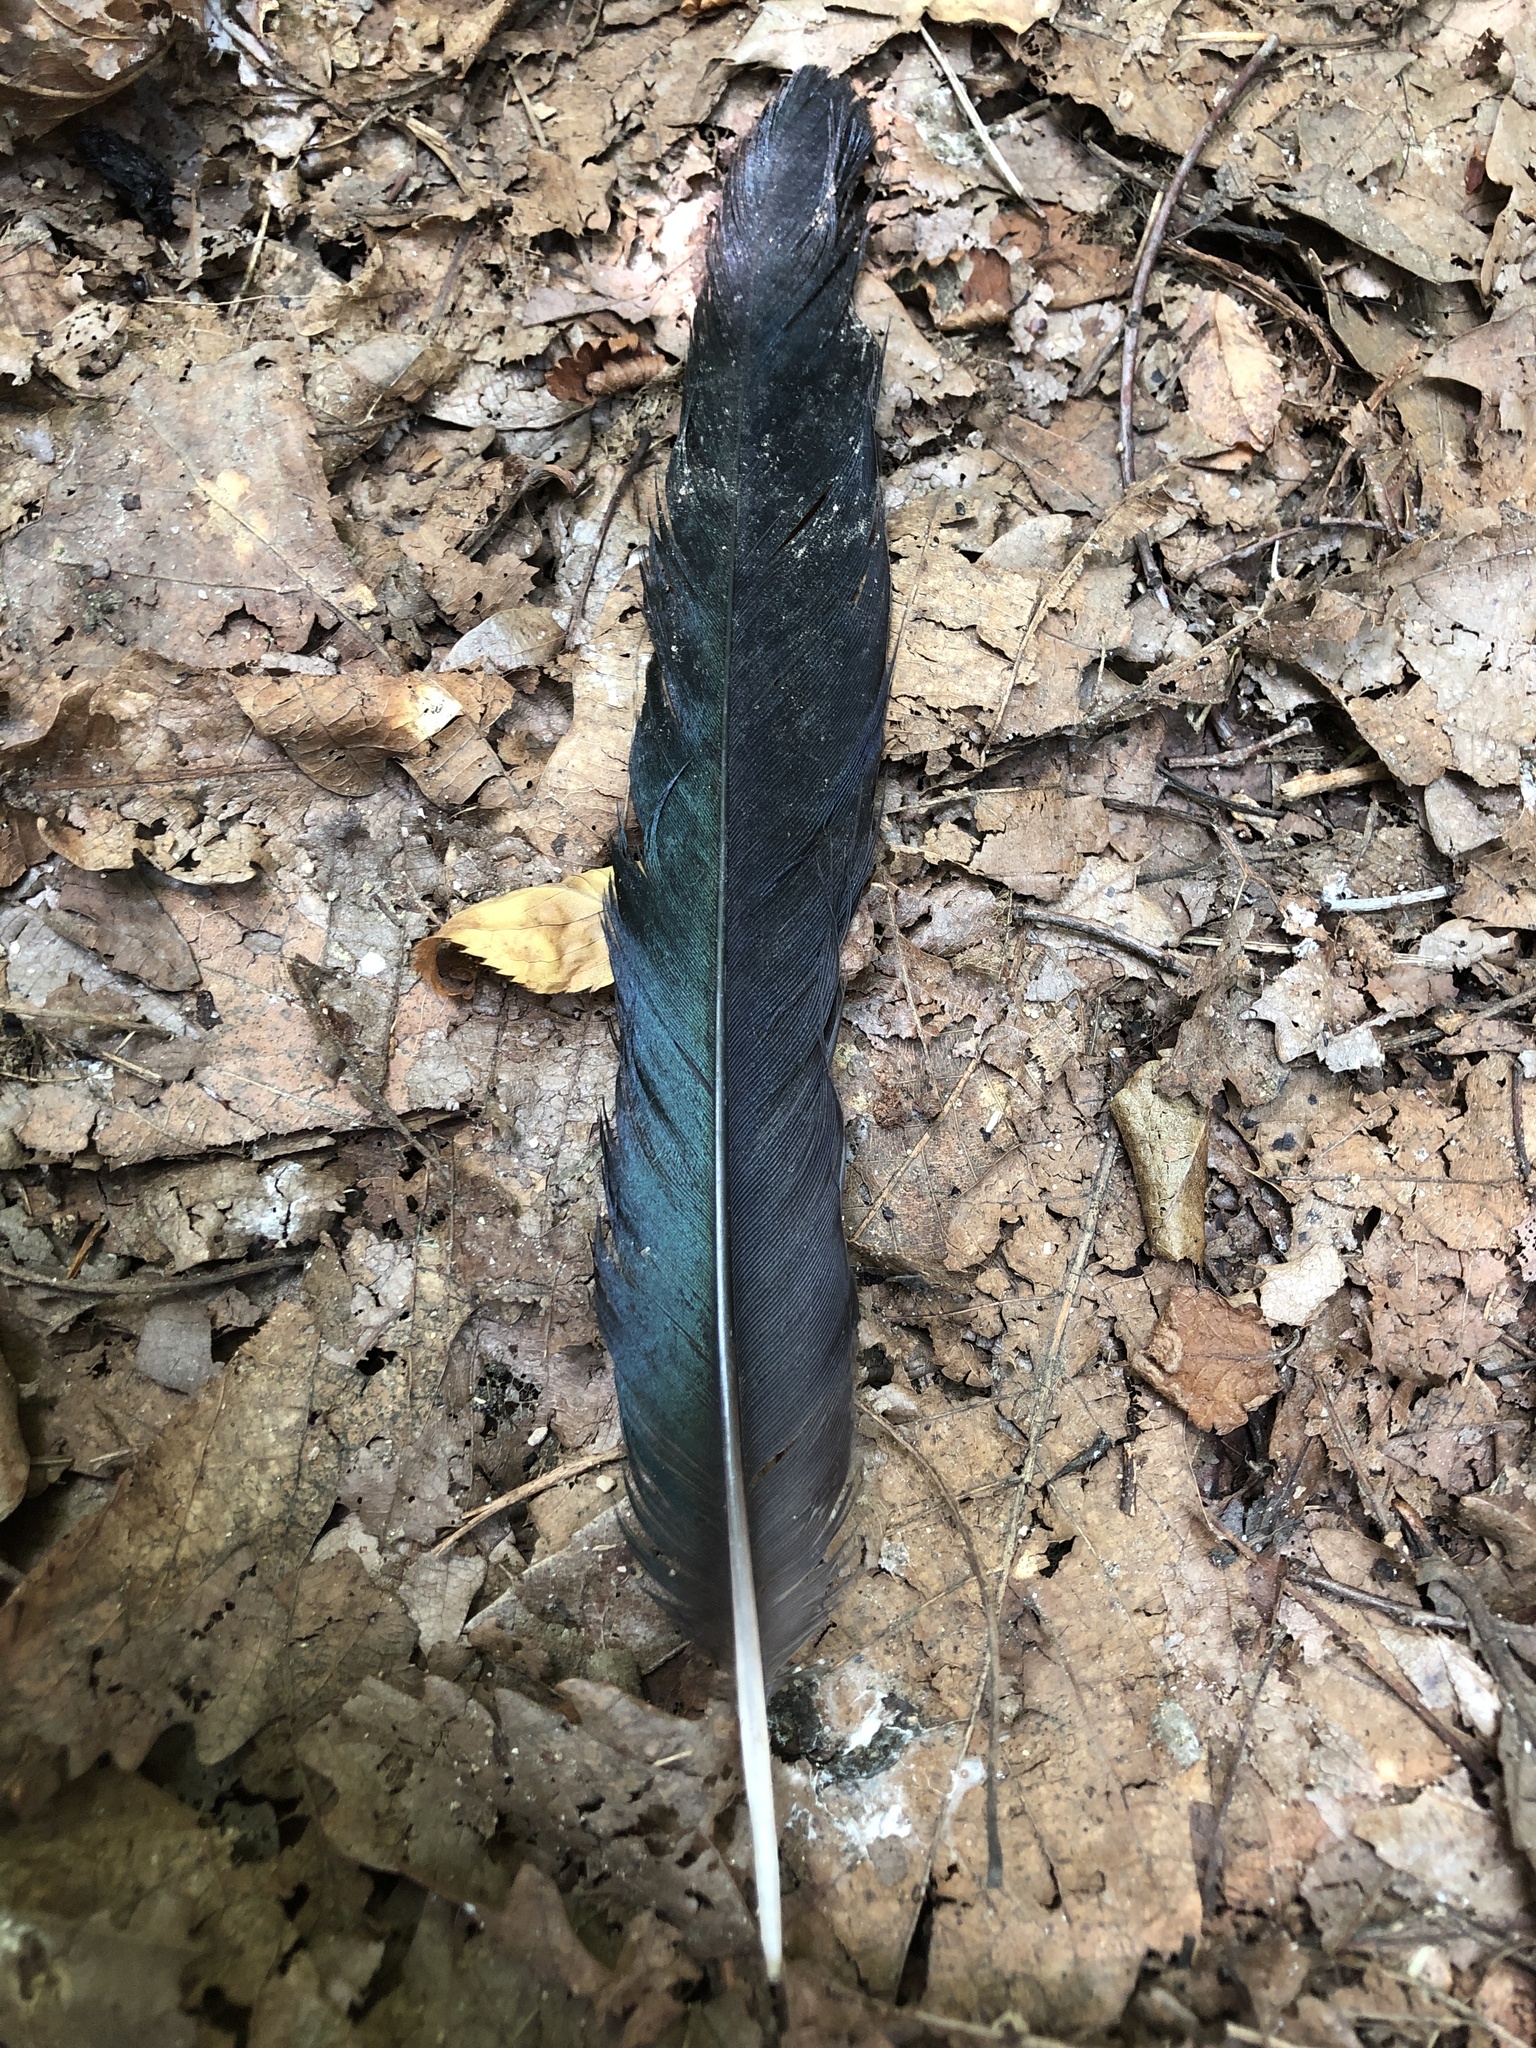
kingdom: Animalia
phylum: Chordata
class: Aves
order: Passeriformes
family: Corvidae
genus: Pica
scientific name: Pica serica
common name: Oriental magpie
